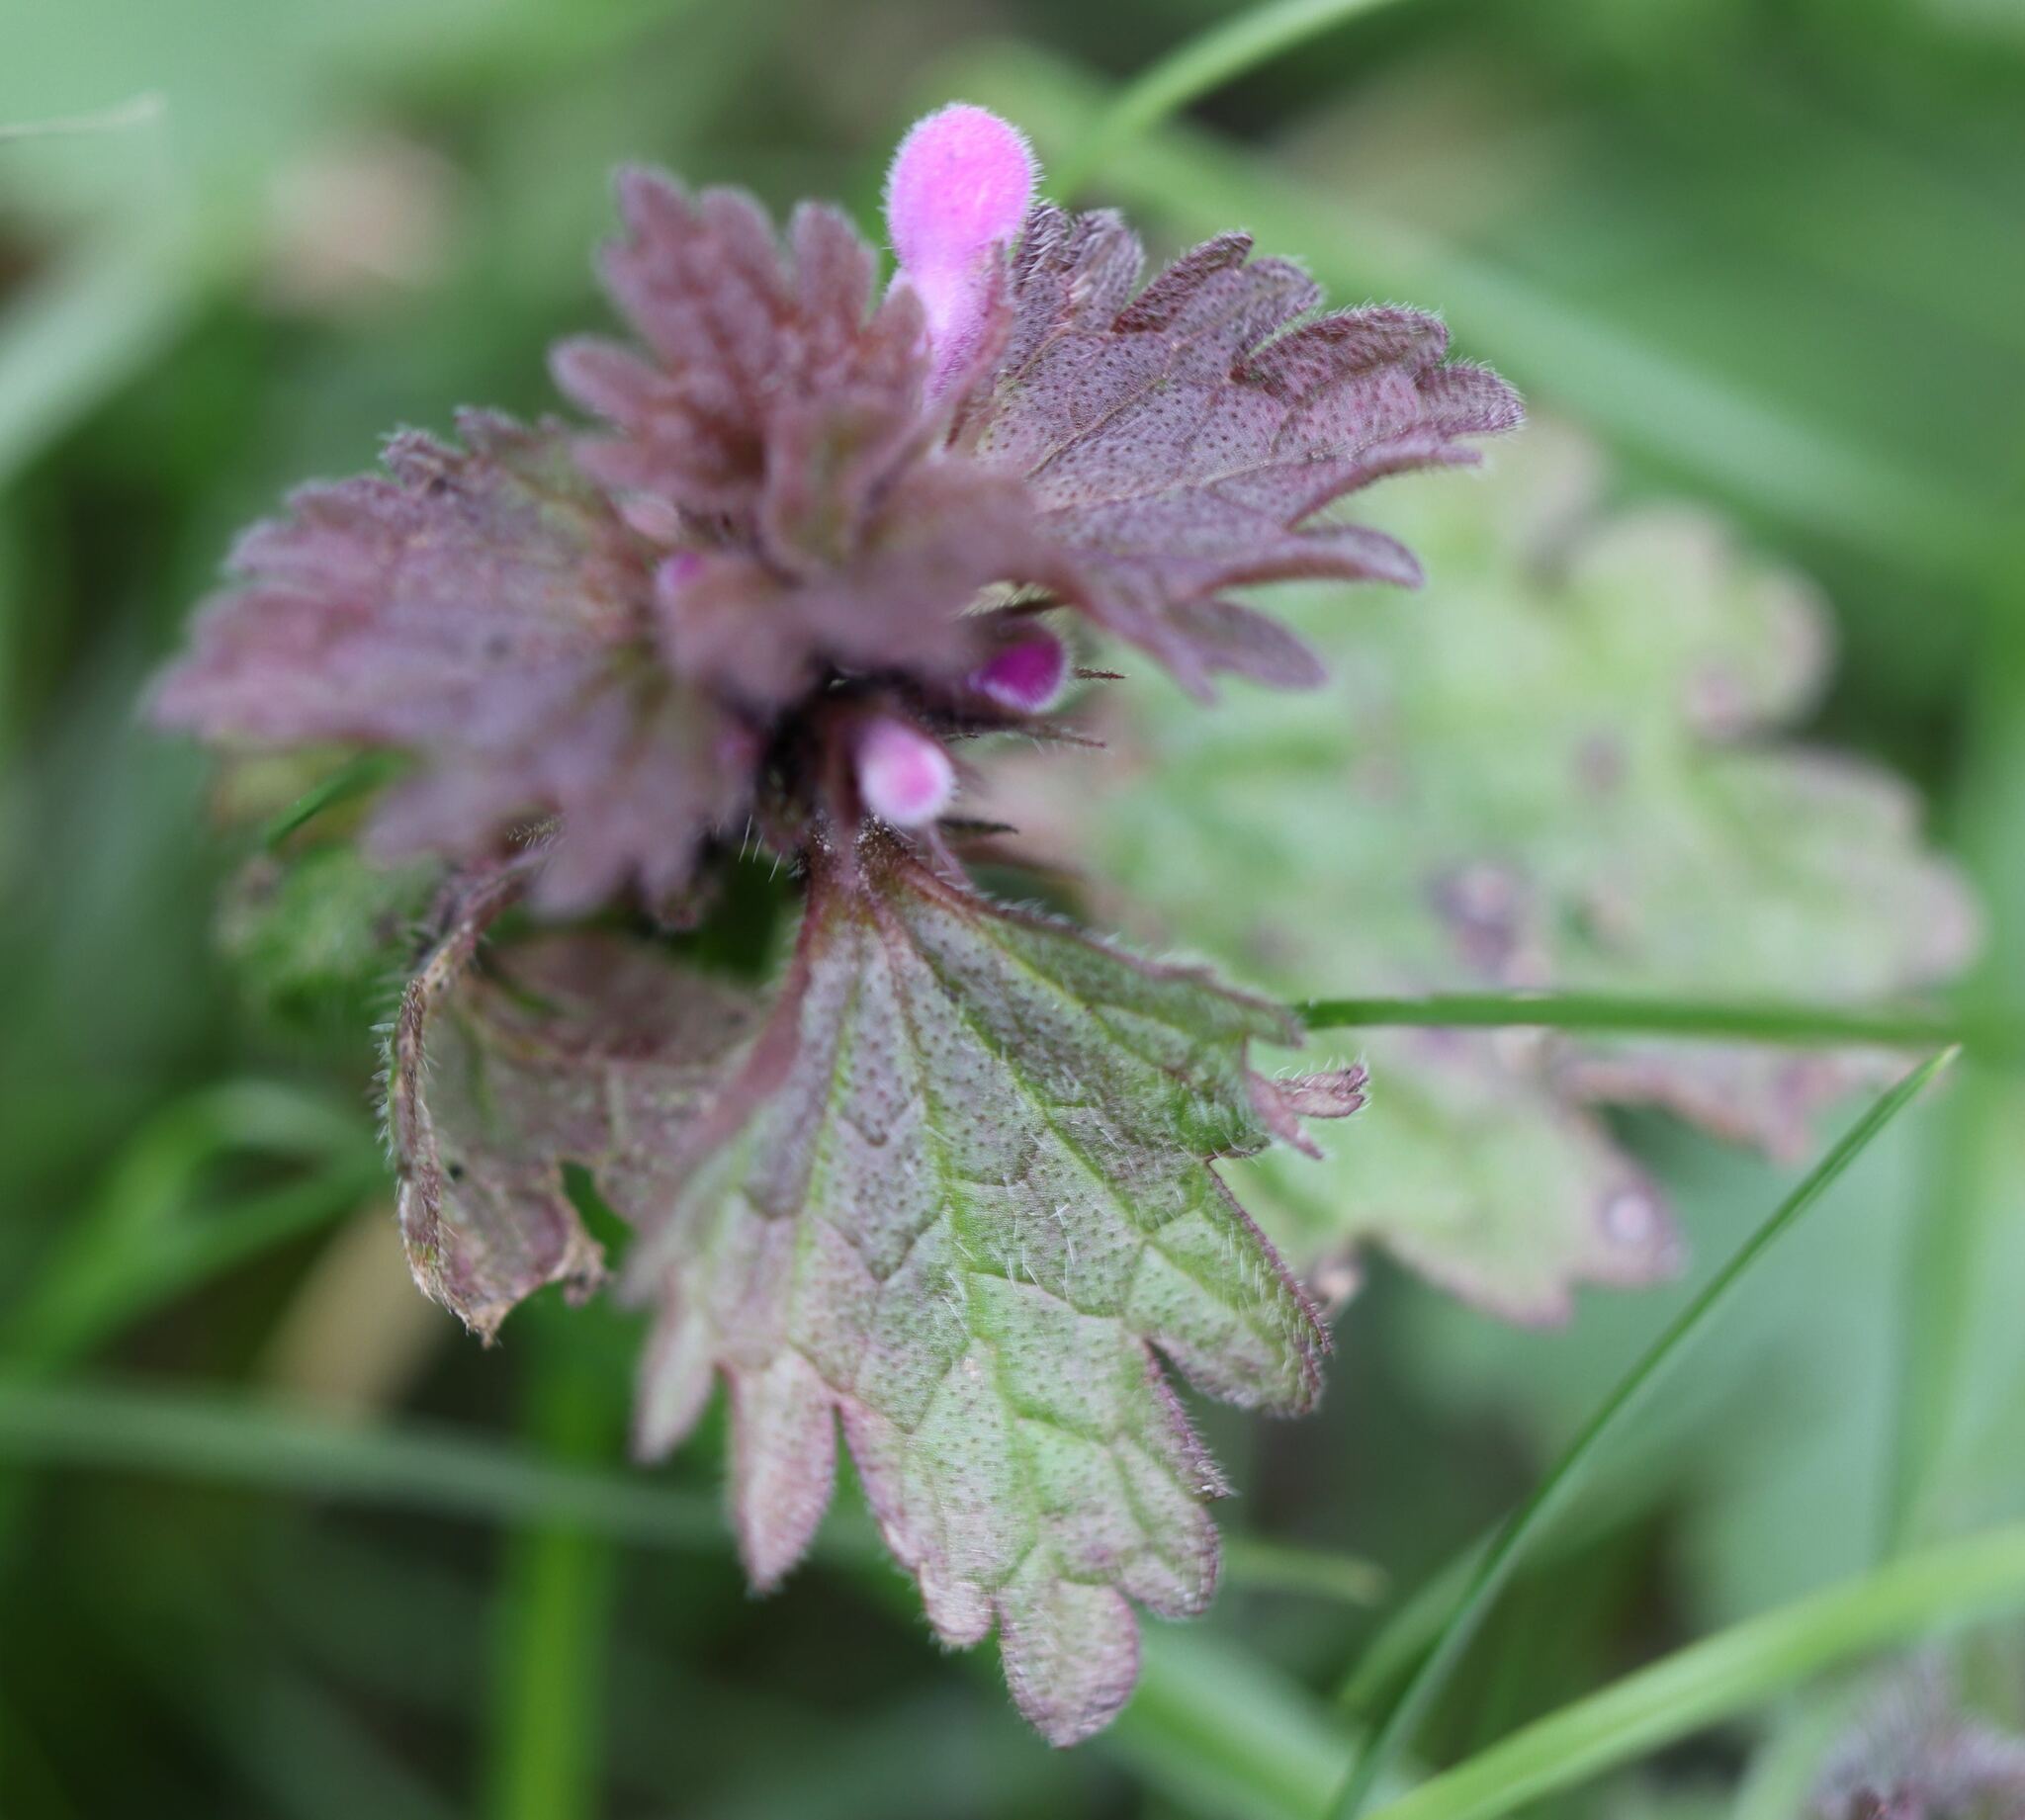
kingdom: Plantae
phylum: Tracheophyta
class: Magnoliopsida
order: Lamiales
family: Lamiaceae
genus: Lamium
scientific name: Lamium hybridum
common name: Cut-leaved dead-nettle
